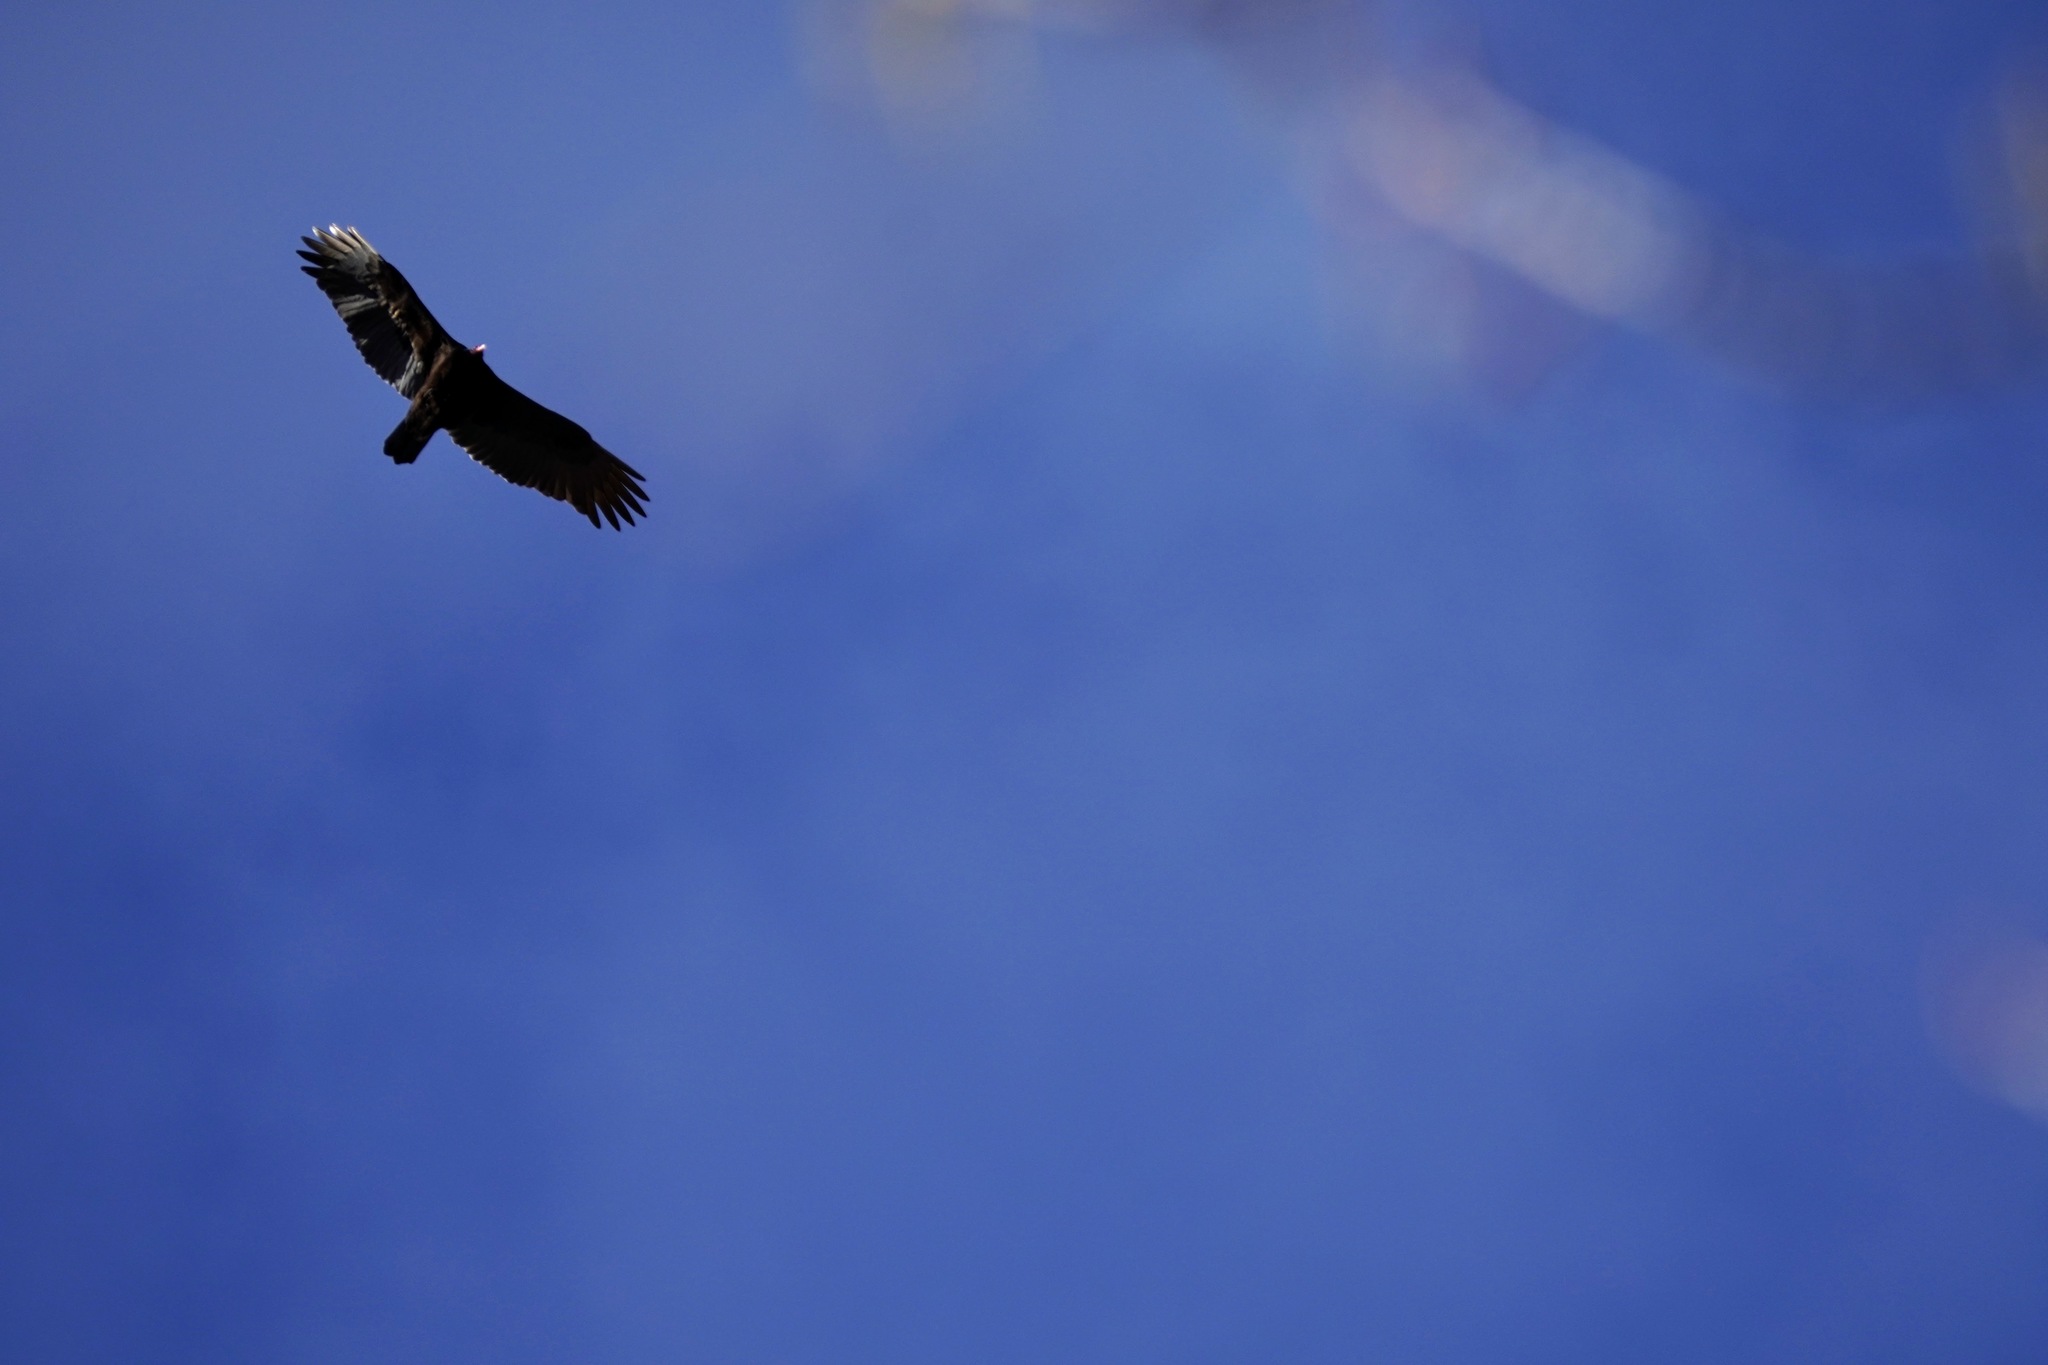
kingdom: Animalia
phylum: Chordata
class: Aves
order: Accipitriformes
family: Cathartidae
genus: Cathartes
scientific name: Cathartes aura
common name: Turkey vulture
